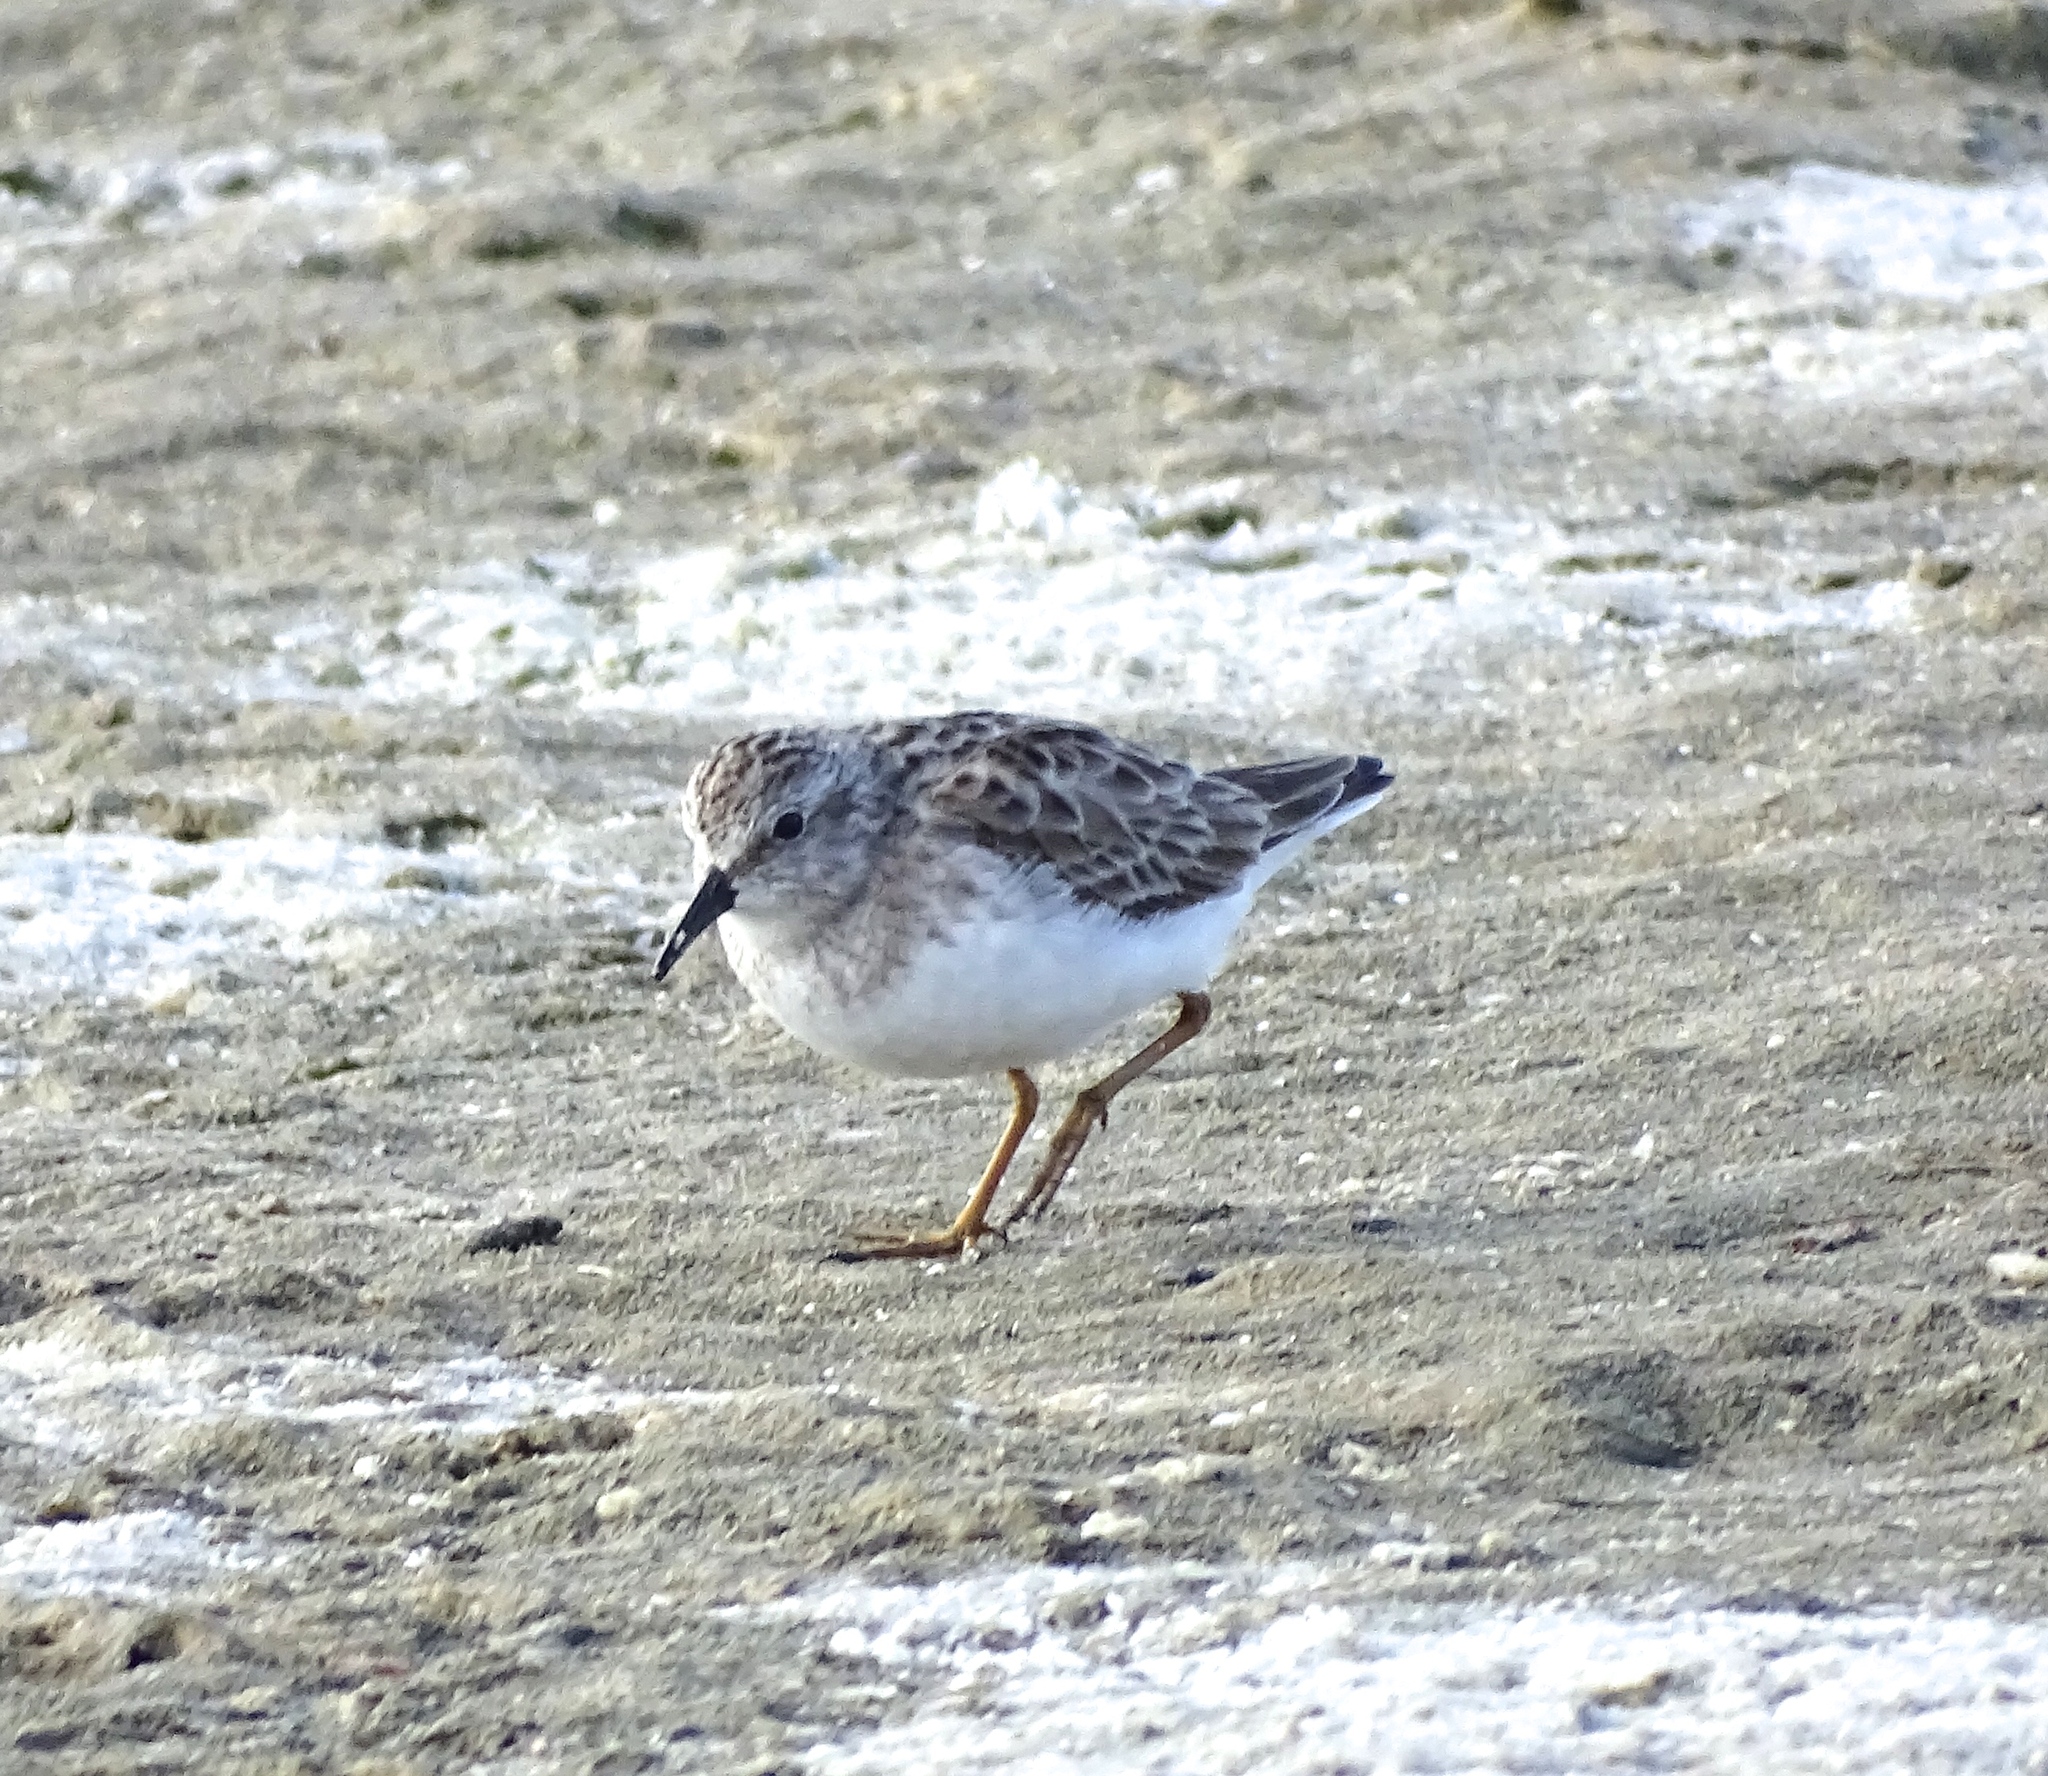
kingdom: Animalia
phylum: Chordata
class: Aves
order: Charadriiformes
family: Scolopacidae
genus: Calidris
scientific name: Calidris minutilla
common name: Least sandpiper
